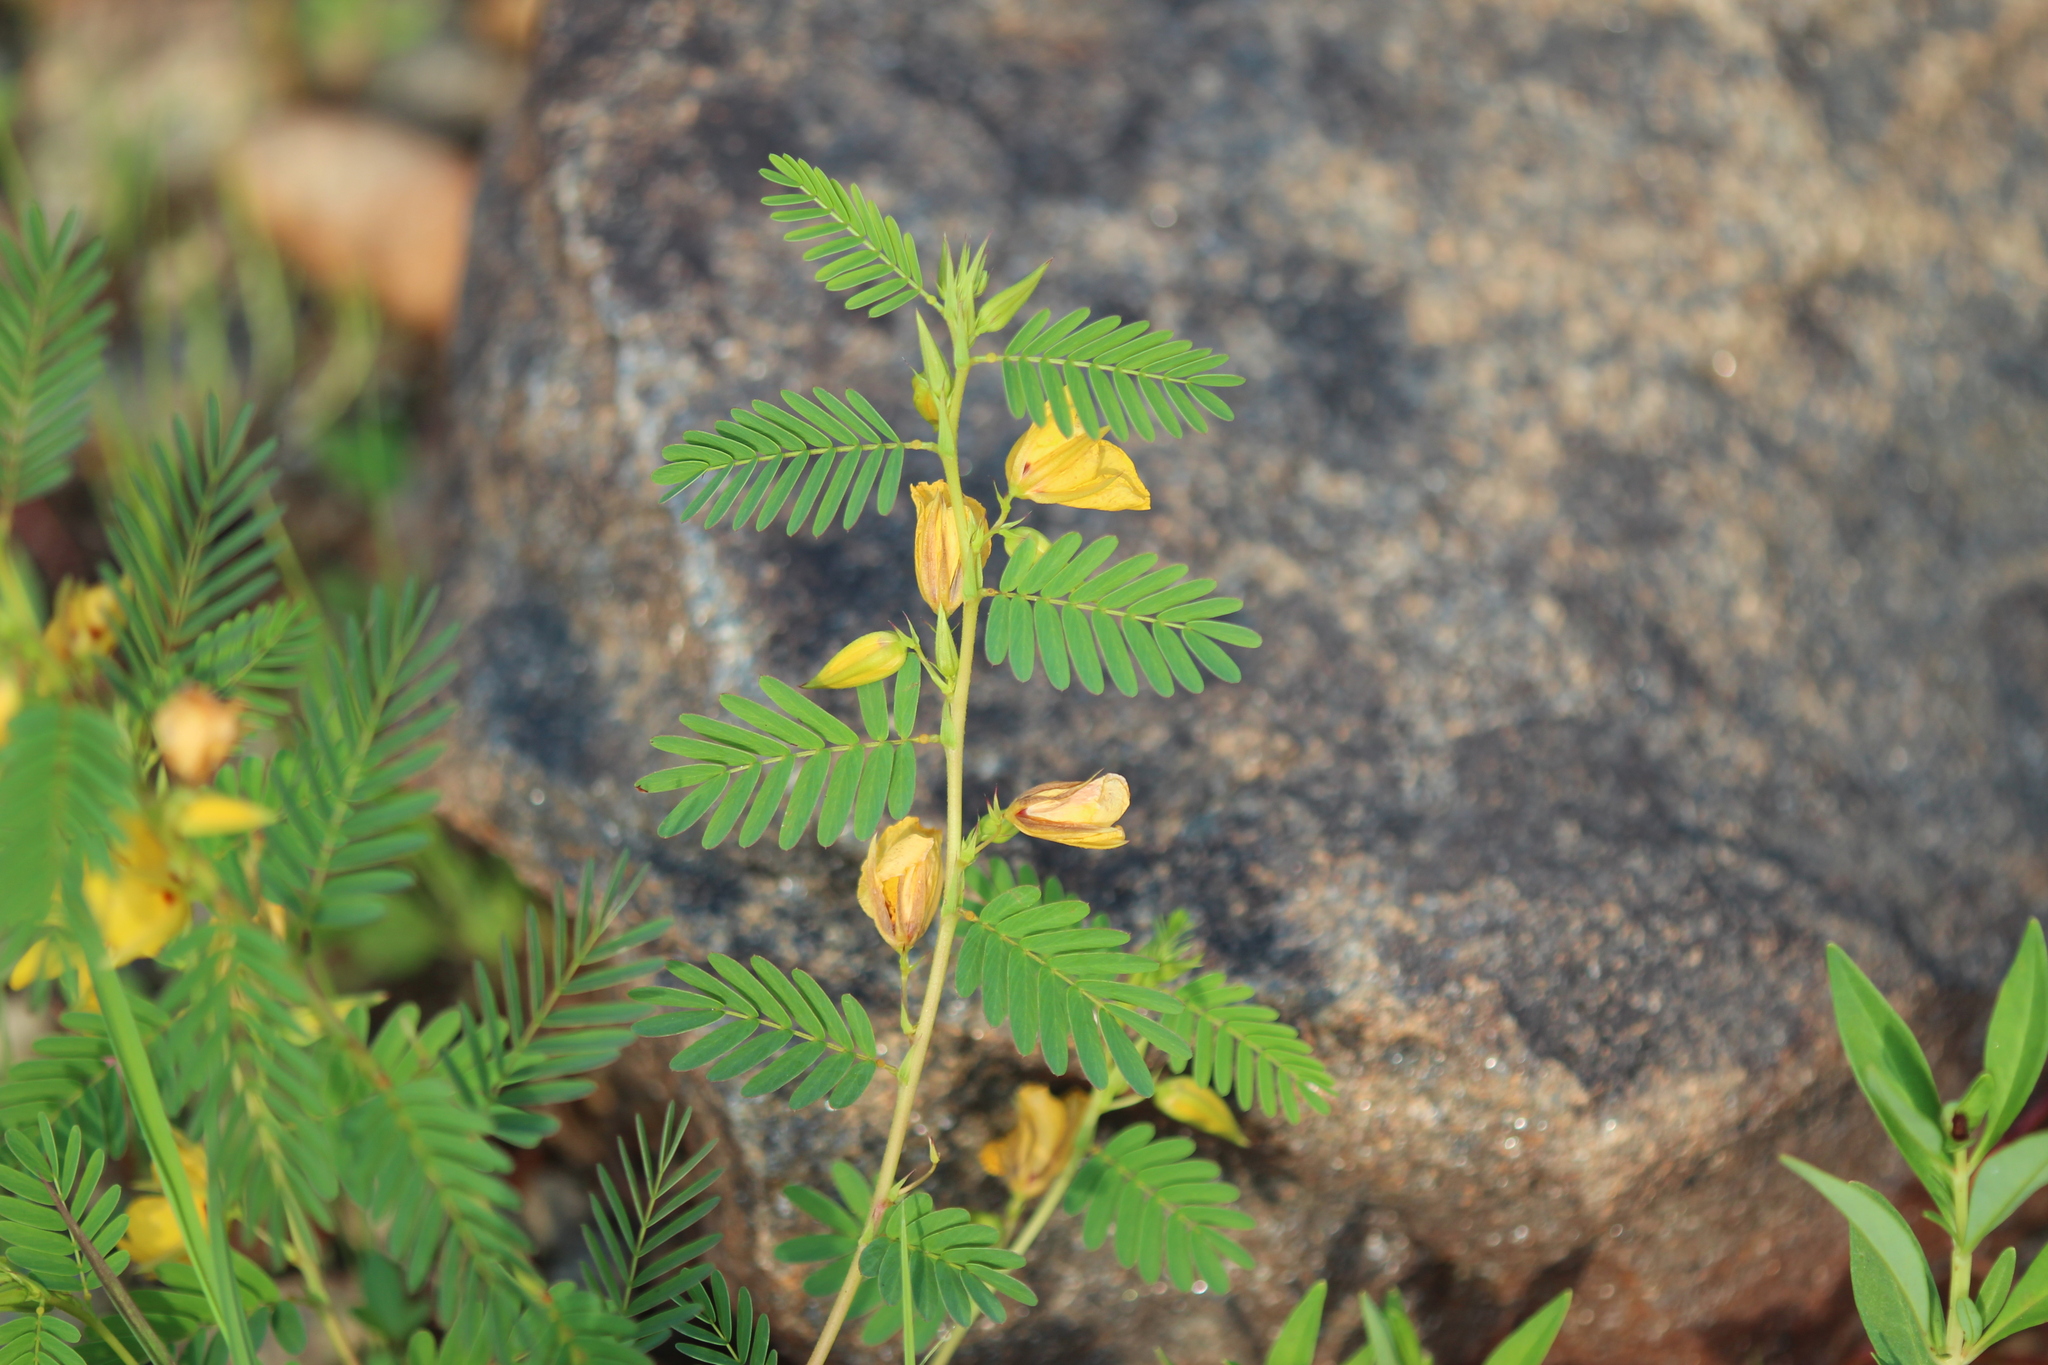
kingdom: Plantae
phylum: Tracheophyta
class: Magnoliopsida
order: Fabales
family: Fabaceae
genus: Chamaecrista
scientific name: Chamaecrista fasciculata
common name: Golden cassia
